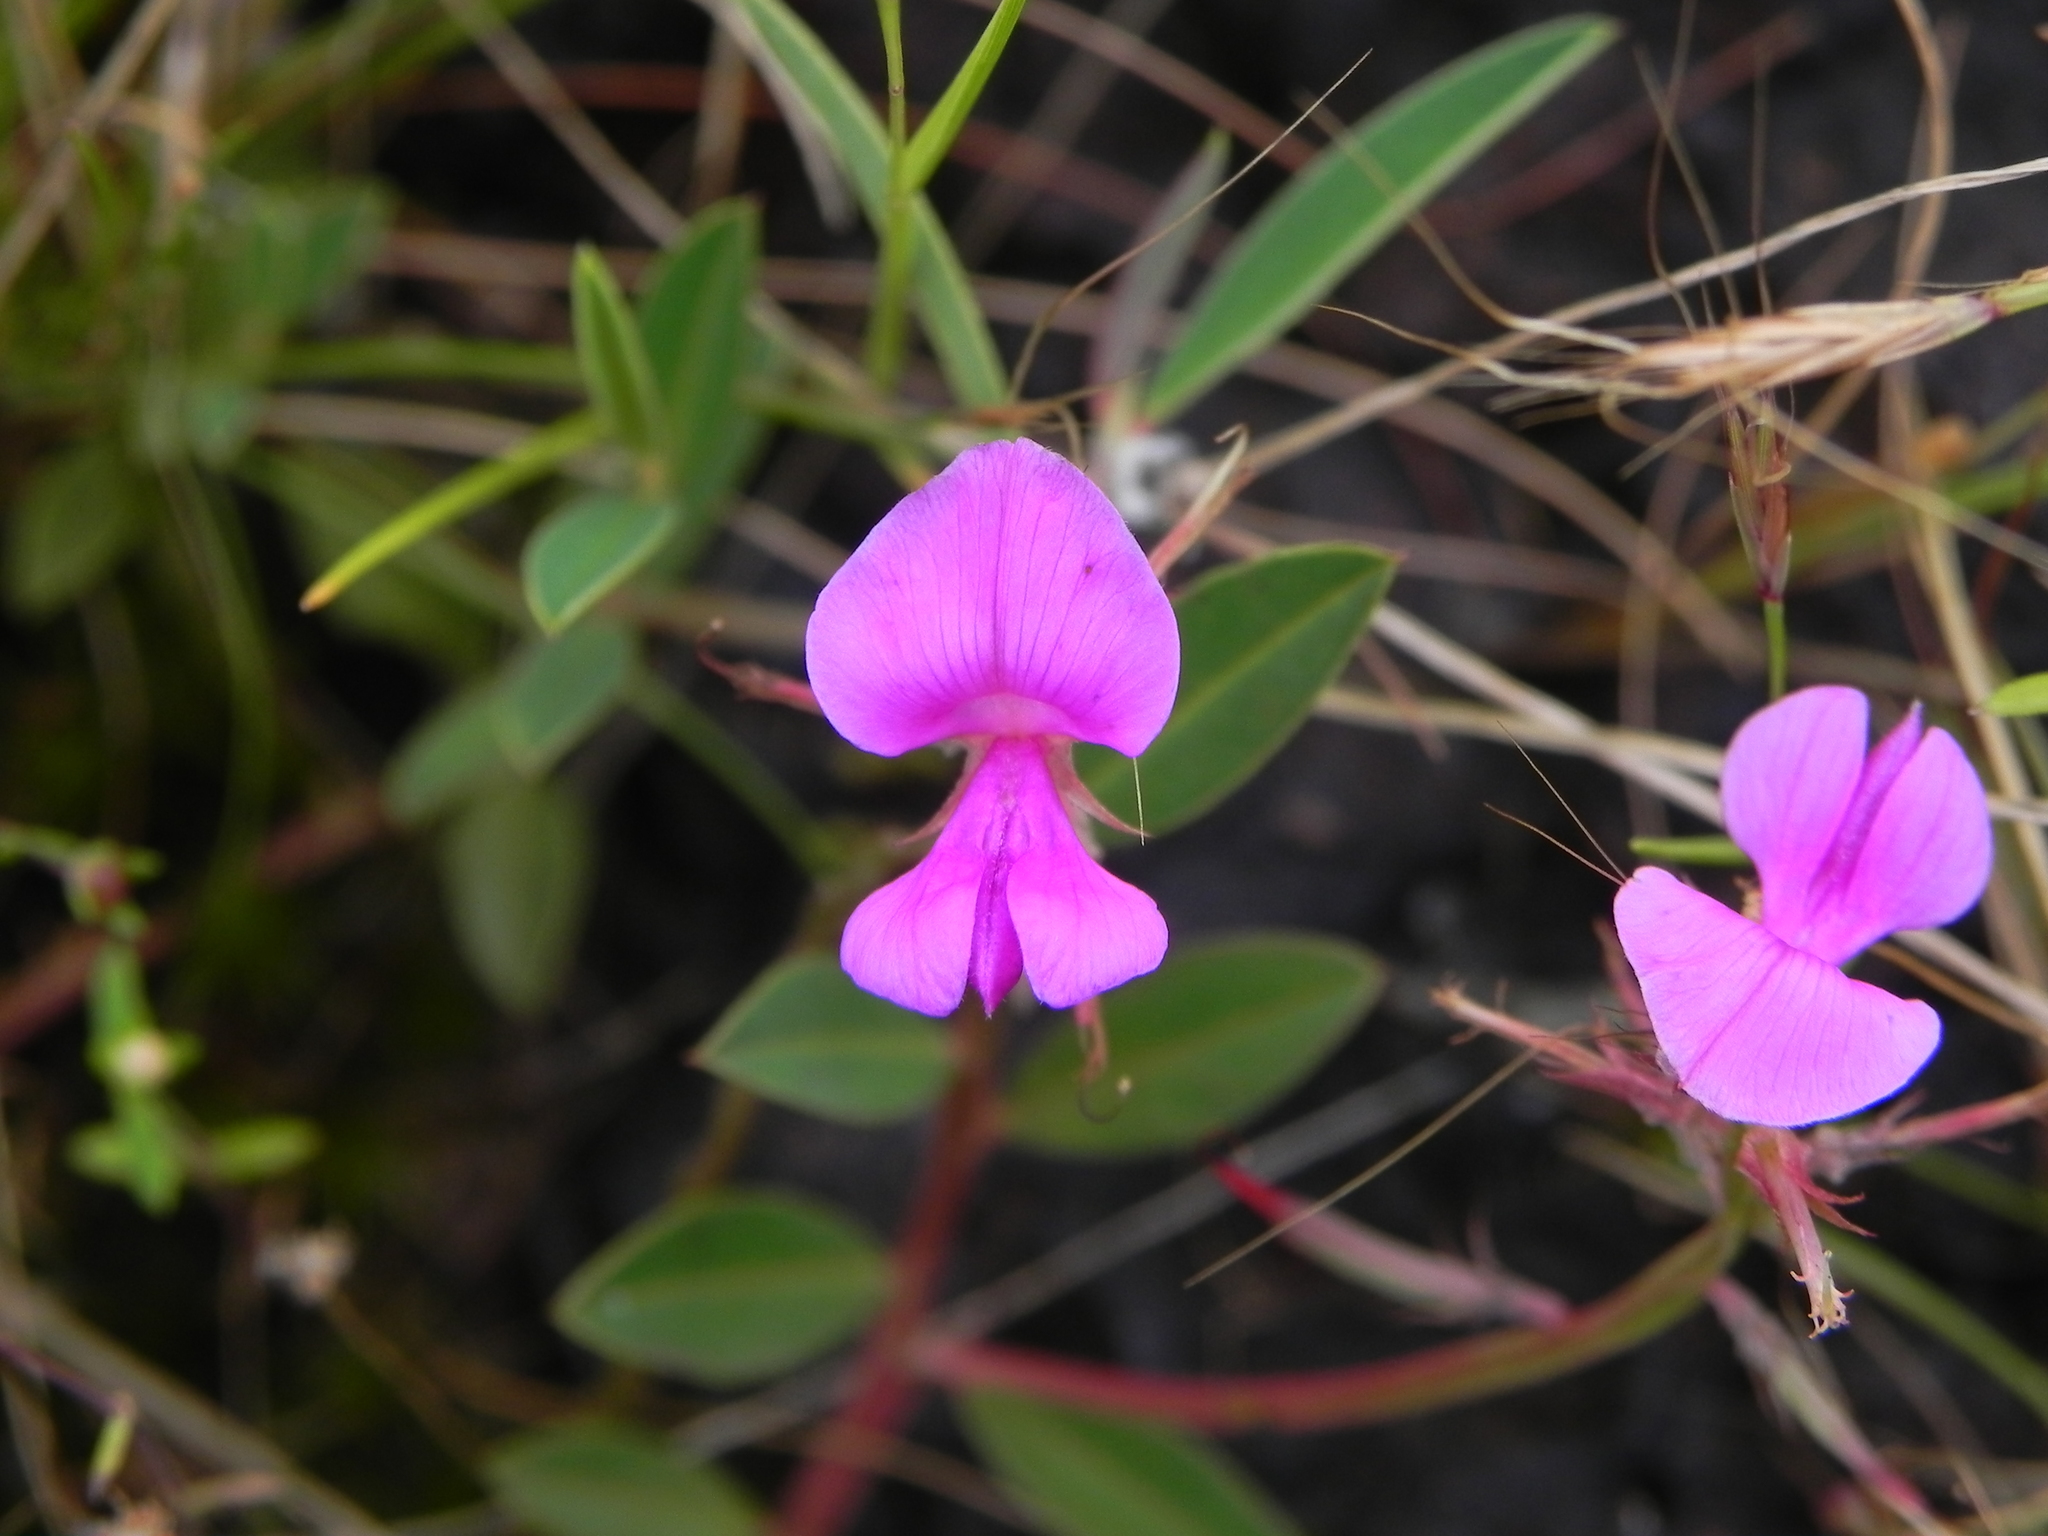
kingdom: Plantae
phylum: Tracheophyta
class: Magnoliopsida
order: Fabales
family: Fabaceae
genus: Indigofera
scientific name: Indigofera dalzelliana
